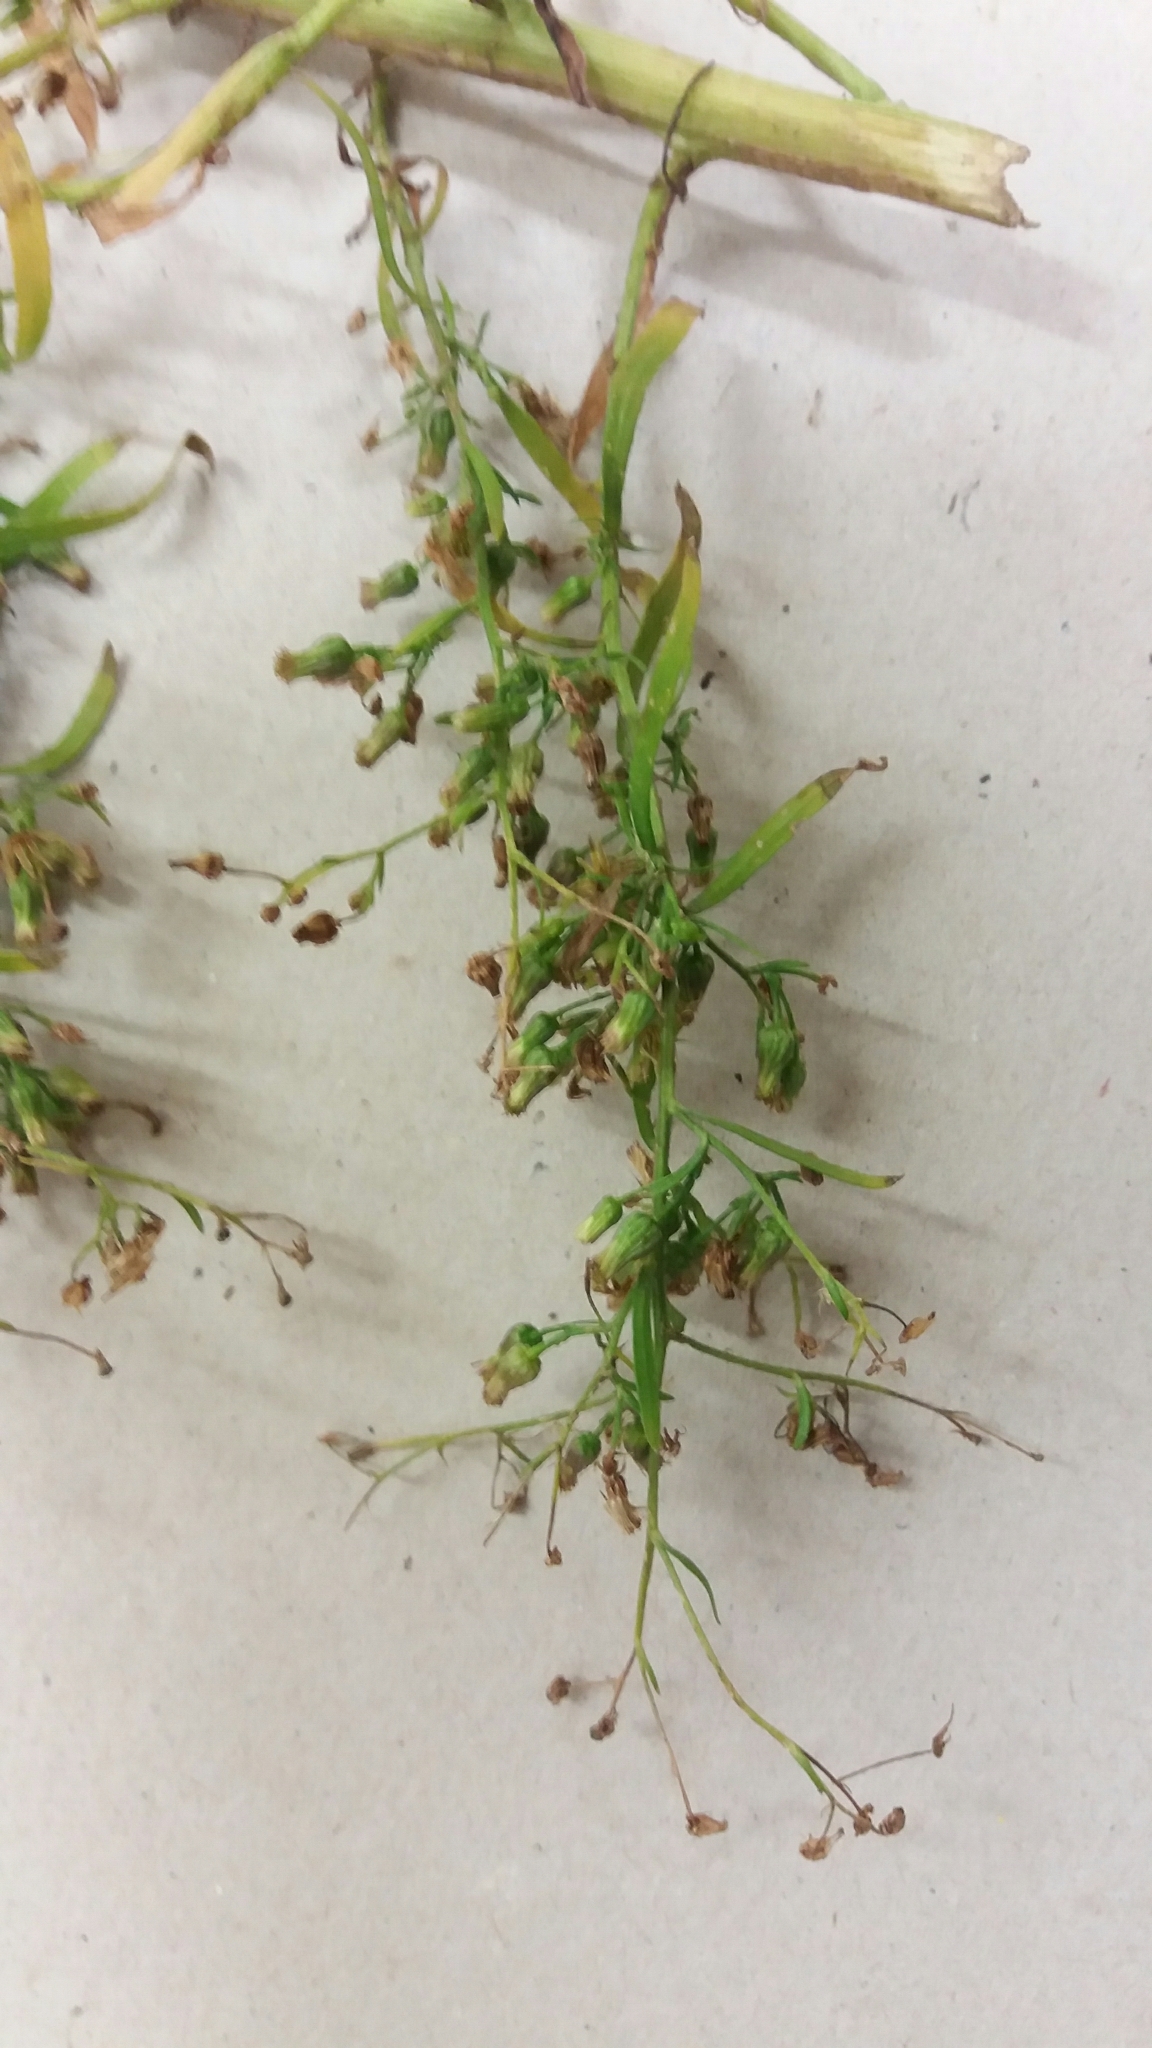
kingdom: Plantae
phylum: Tracheophyta
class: Magnoliopsida
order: Asterales
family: Asteraceae
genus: Erigeron
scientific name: Erigeron sumatrensis
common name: Daisy
